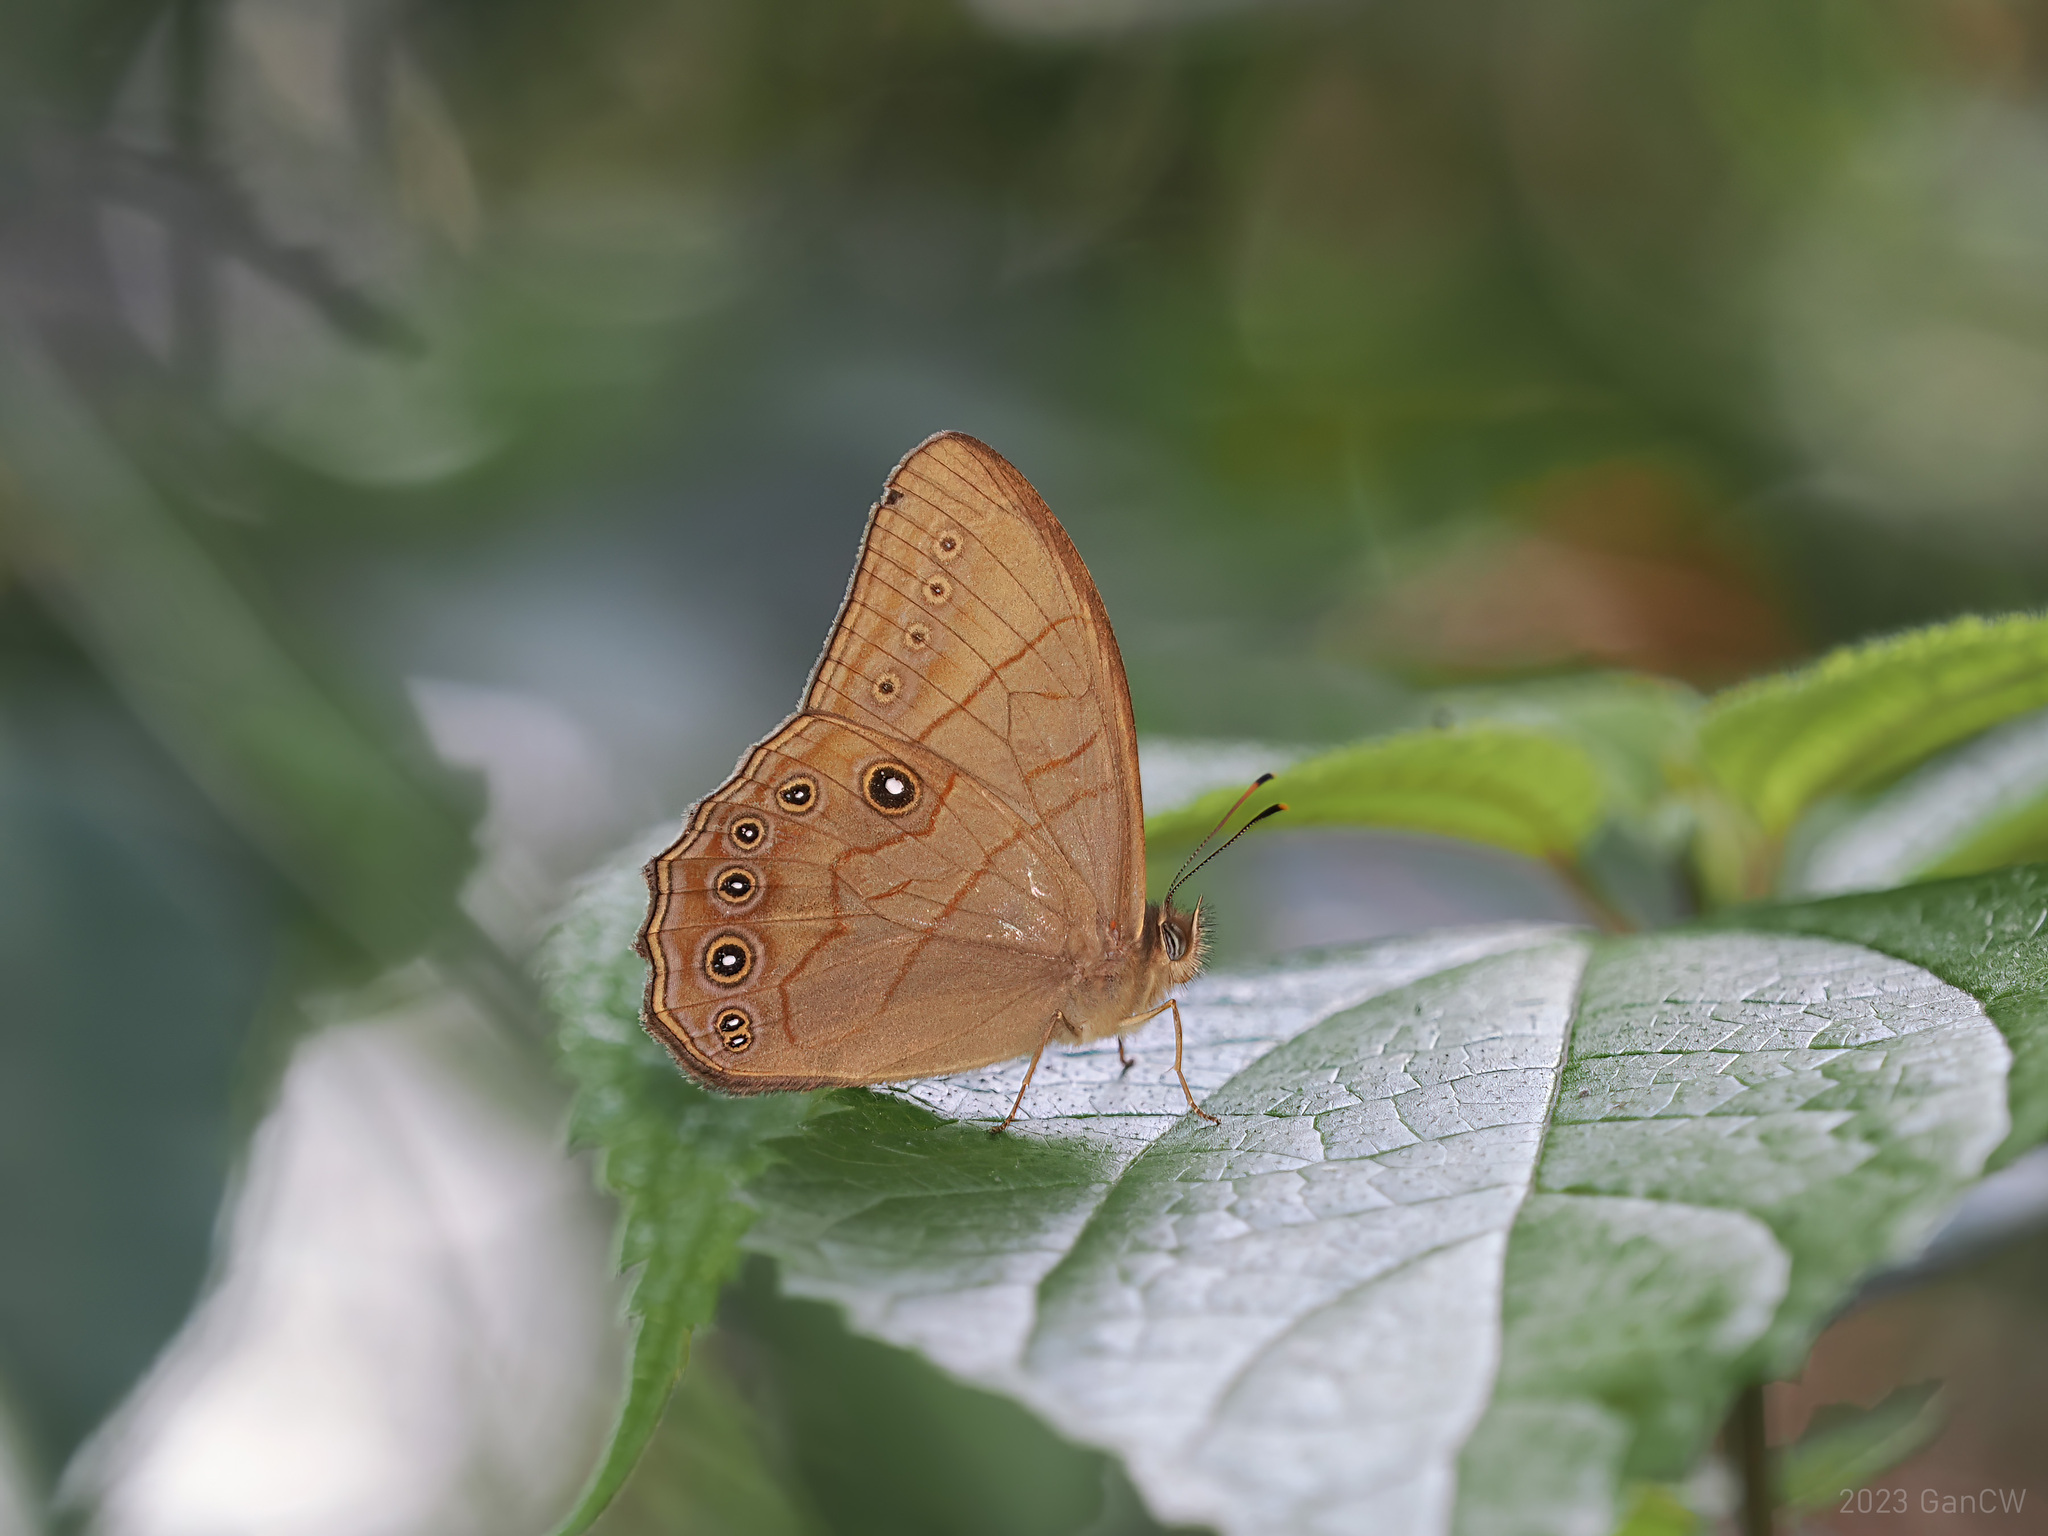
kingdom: Animalia
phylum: Arthropoda
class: Insecta
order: Lepidoptera
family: Nymphalidae
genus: Lethe
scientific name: Lethe latiaris
